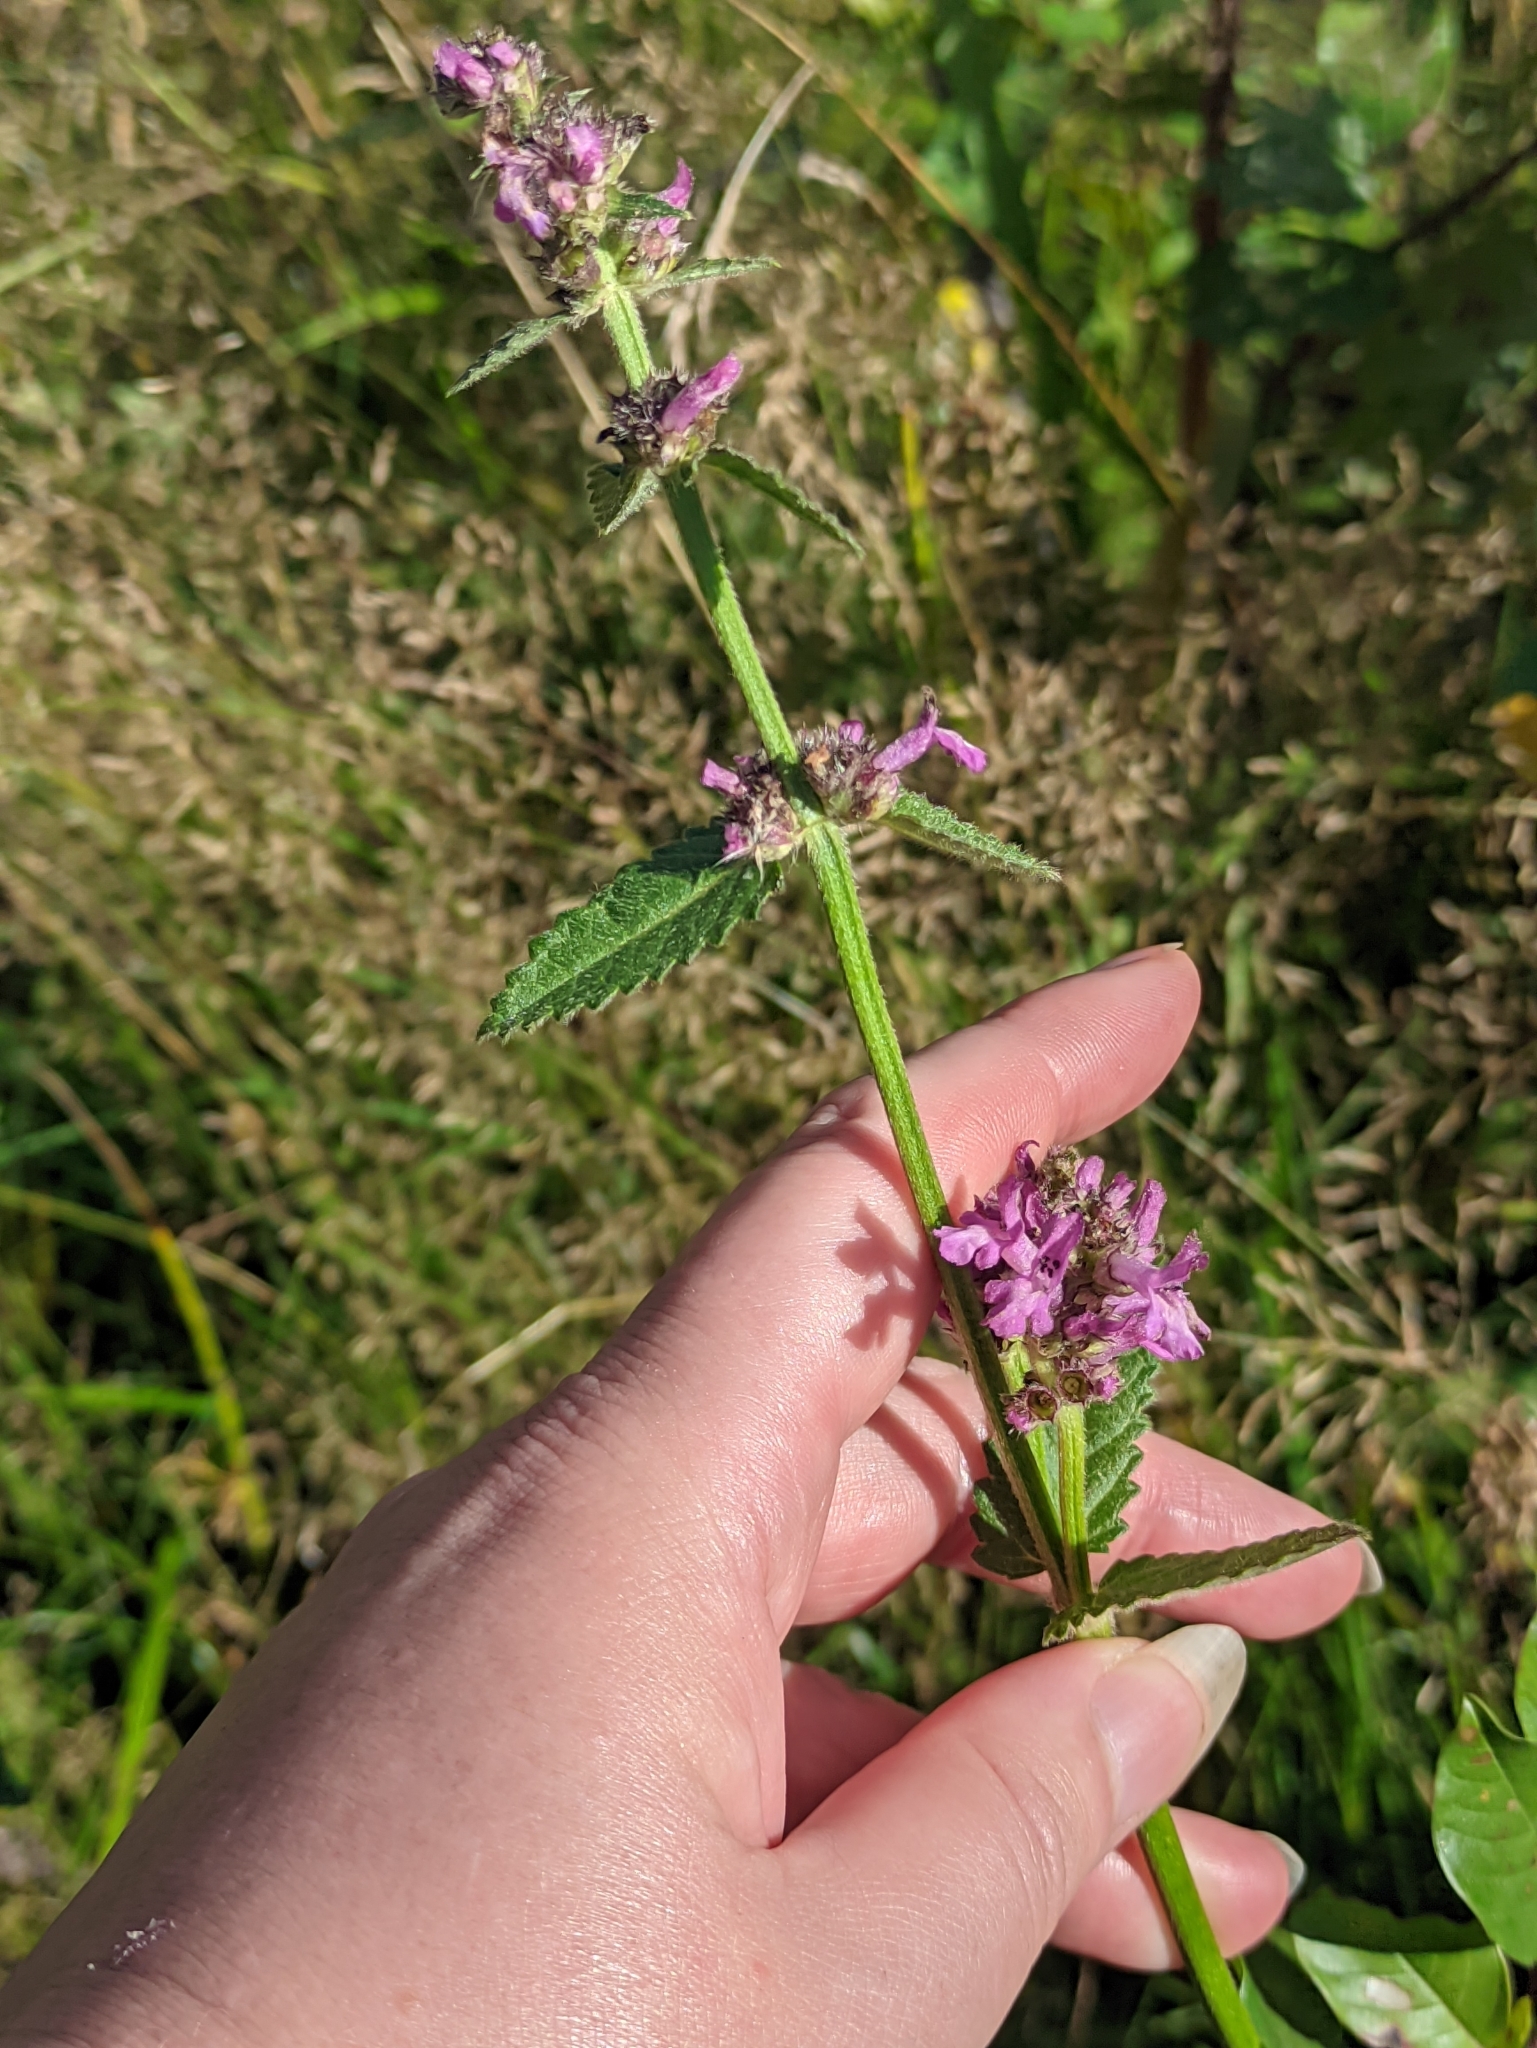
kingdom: Plantae
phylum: Tracheophyta
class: Magnoliopsida
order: Lamiales
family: Lamiaceae
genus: Betonica
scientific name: Betonica officinalis
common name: Bishop's-wort
